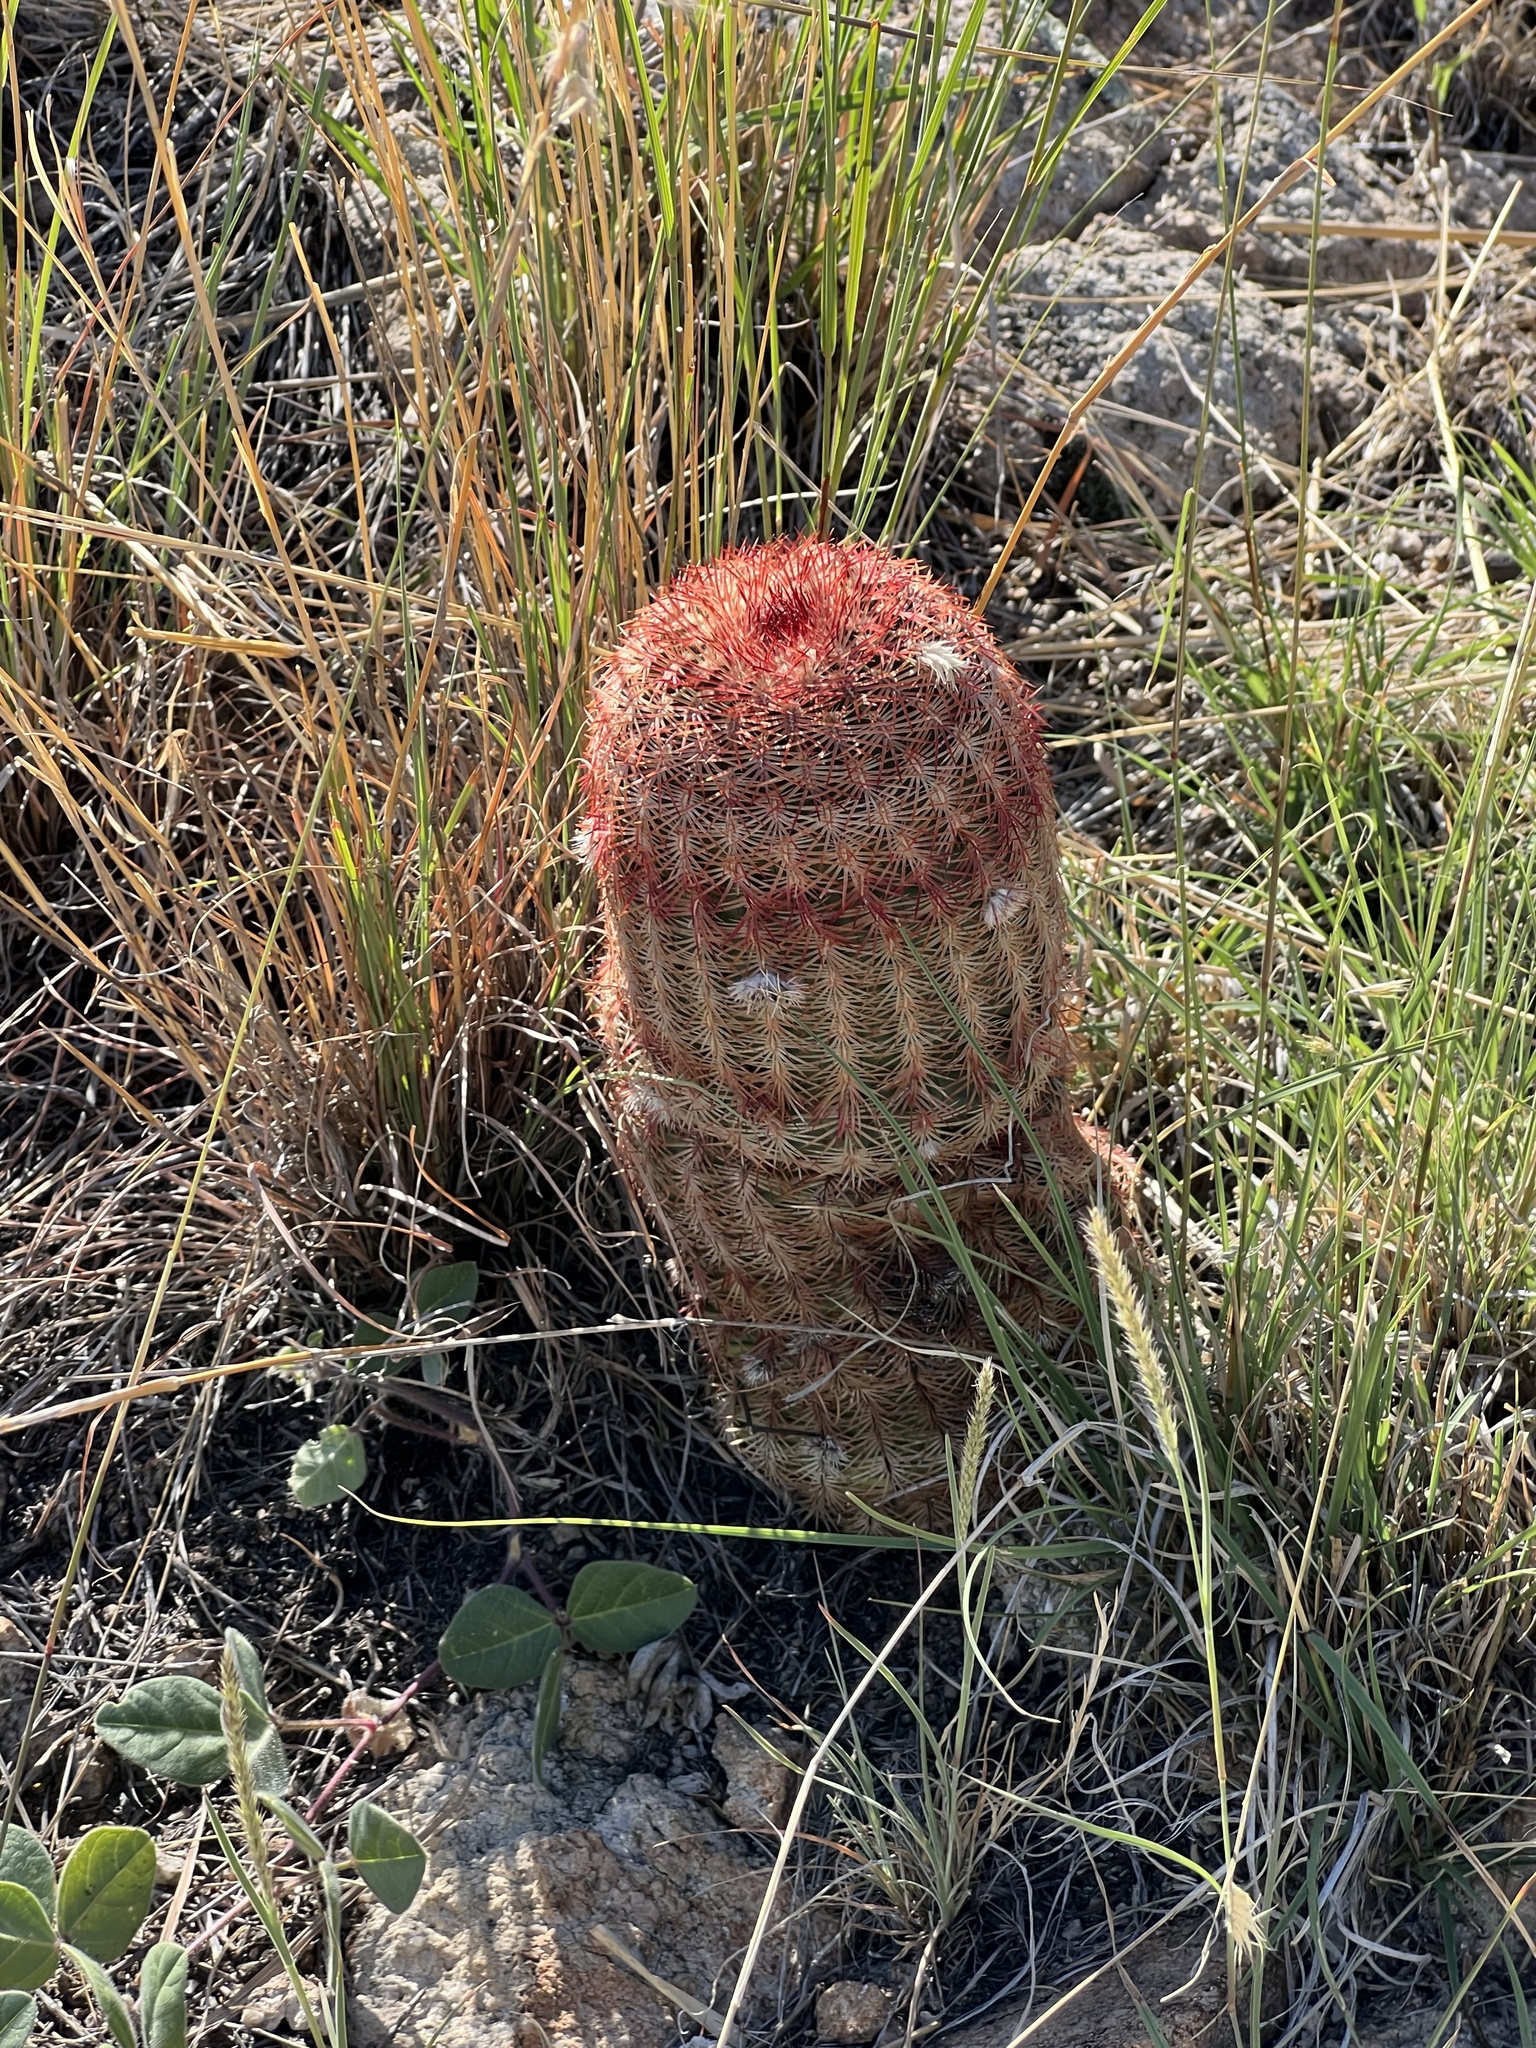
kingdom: Plantae
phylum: Tracheophyta
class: Magnoliopsida
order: Caryophyllales
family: Cactaceae
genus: Echinocereus
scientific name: Echinocereus rigidissimus
